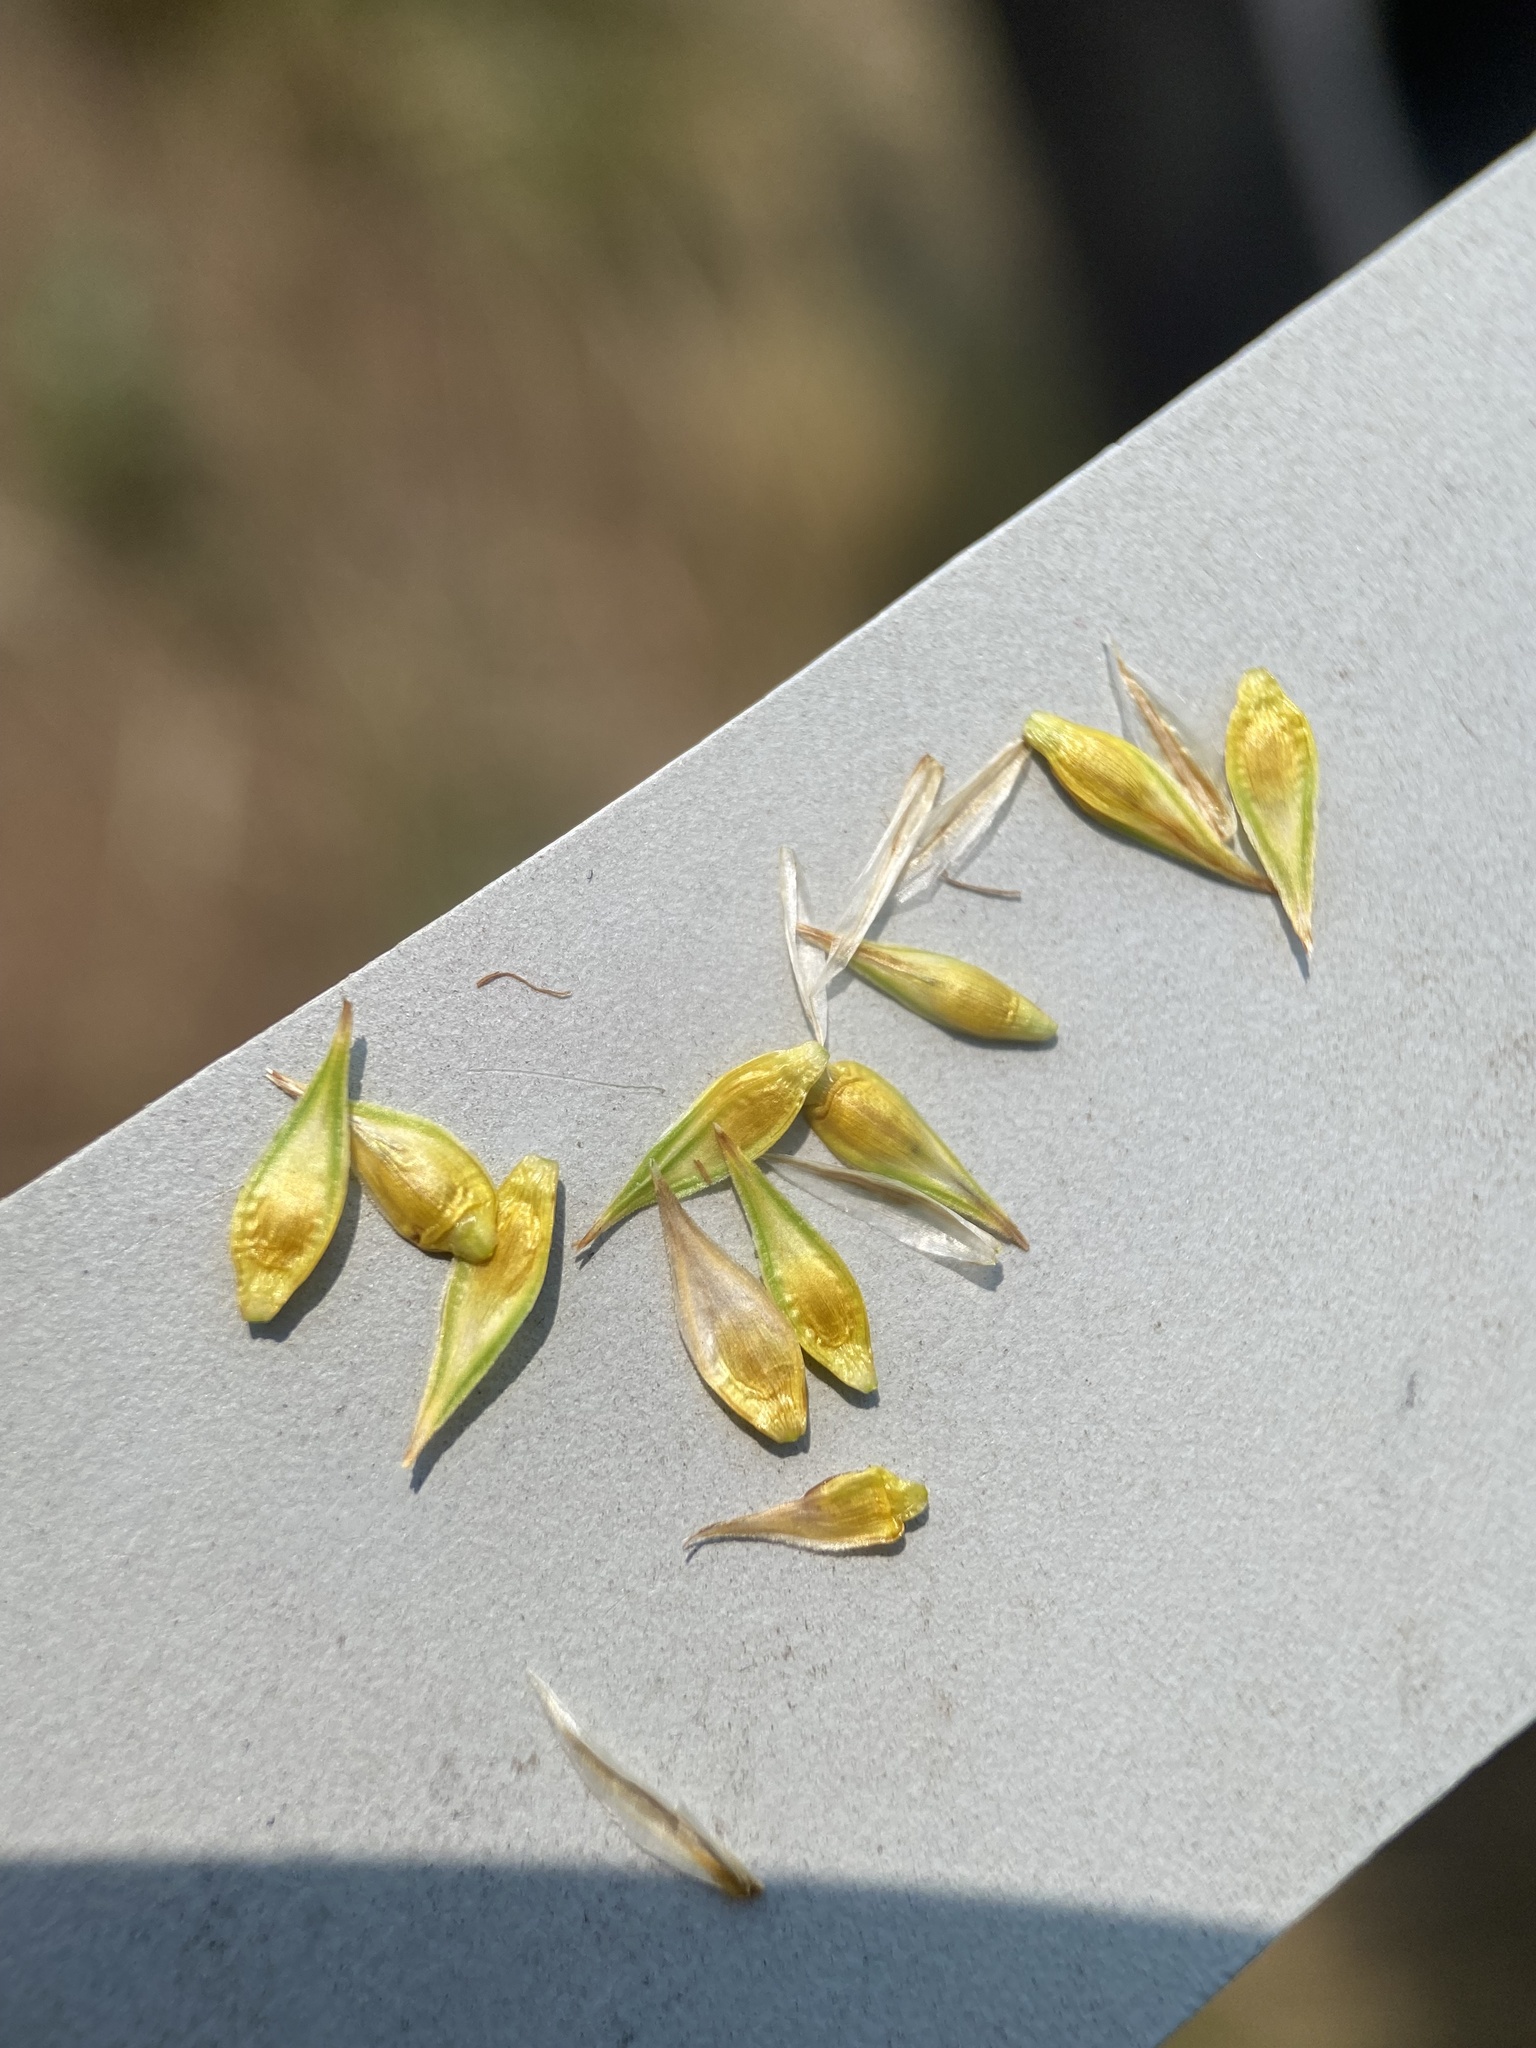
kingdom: Plantae
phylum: Tracheophyta
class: Liliopsida
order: Poales
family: Cyperaceae
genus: Carex
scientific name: Carex petasata
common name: Liddon's sedge
